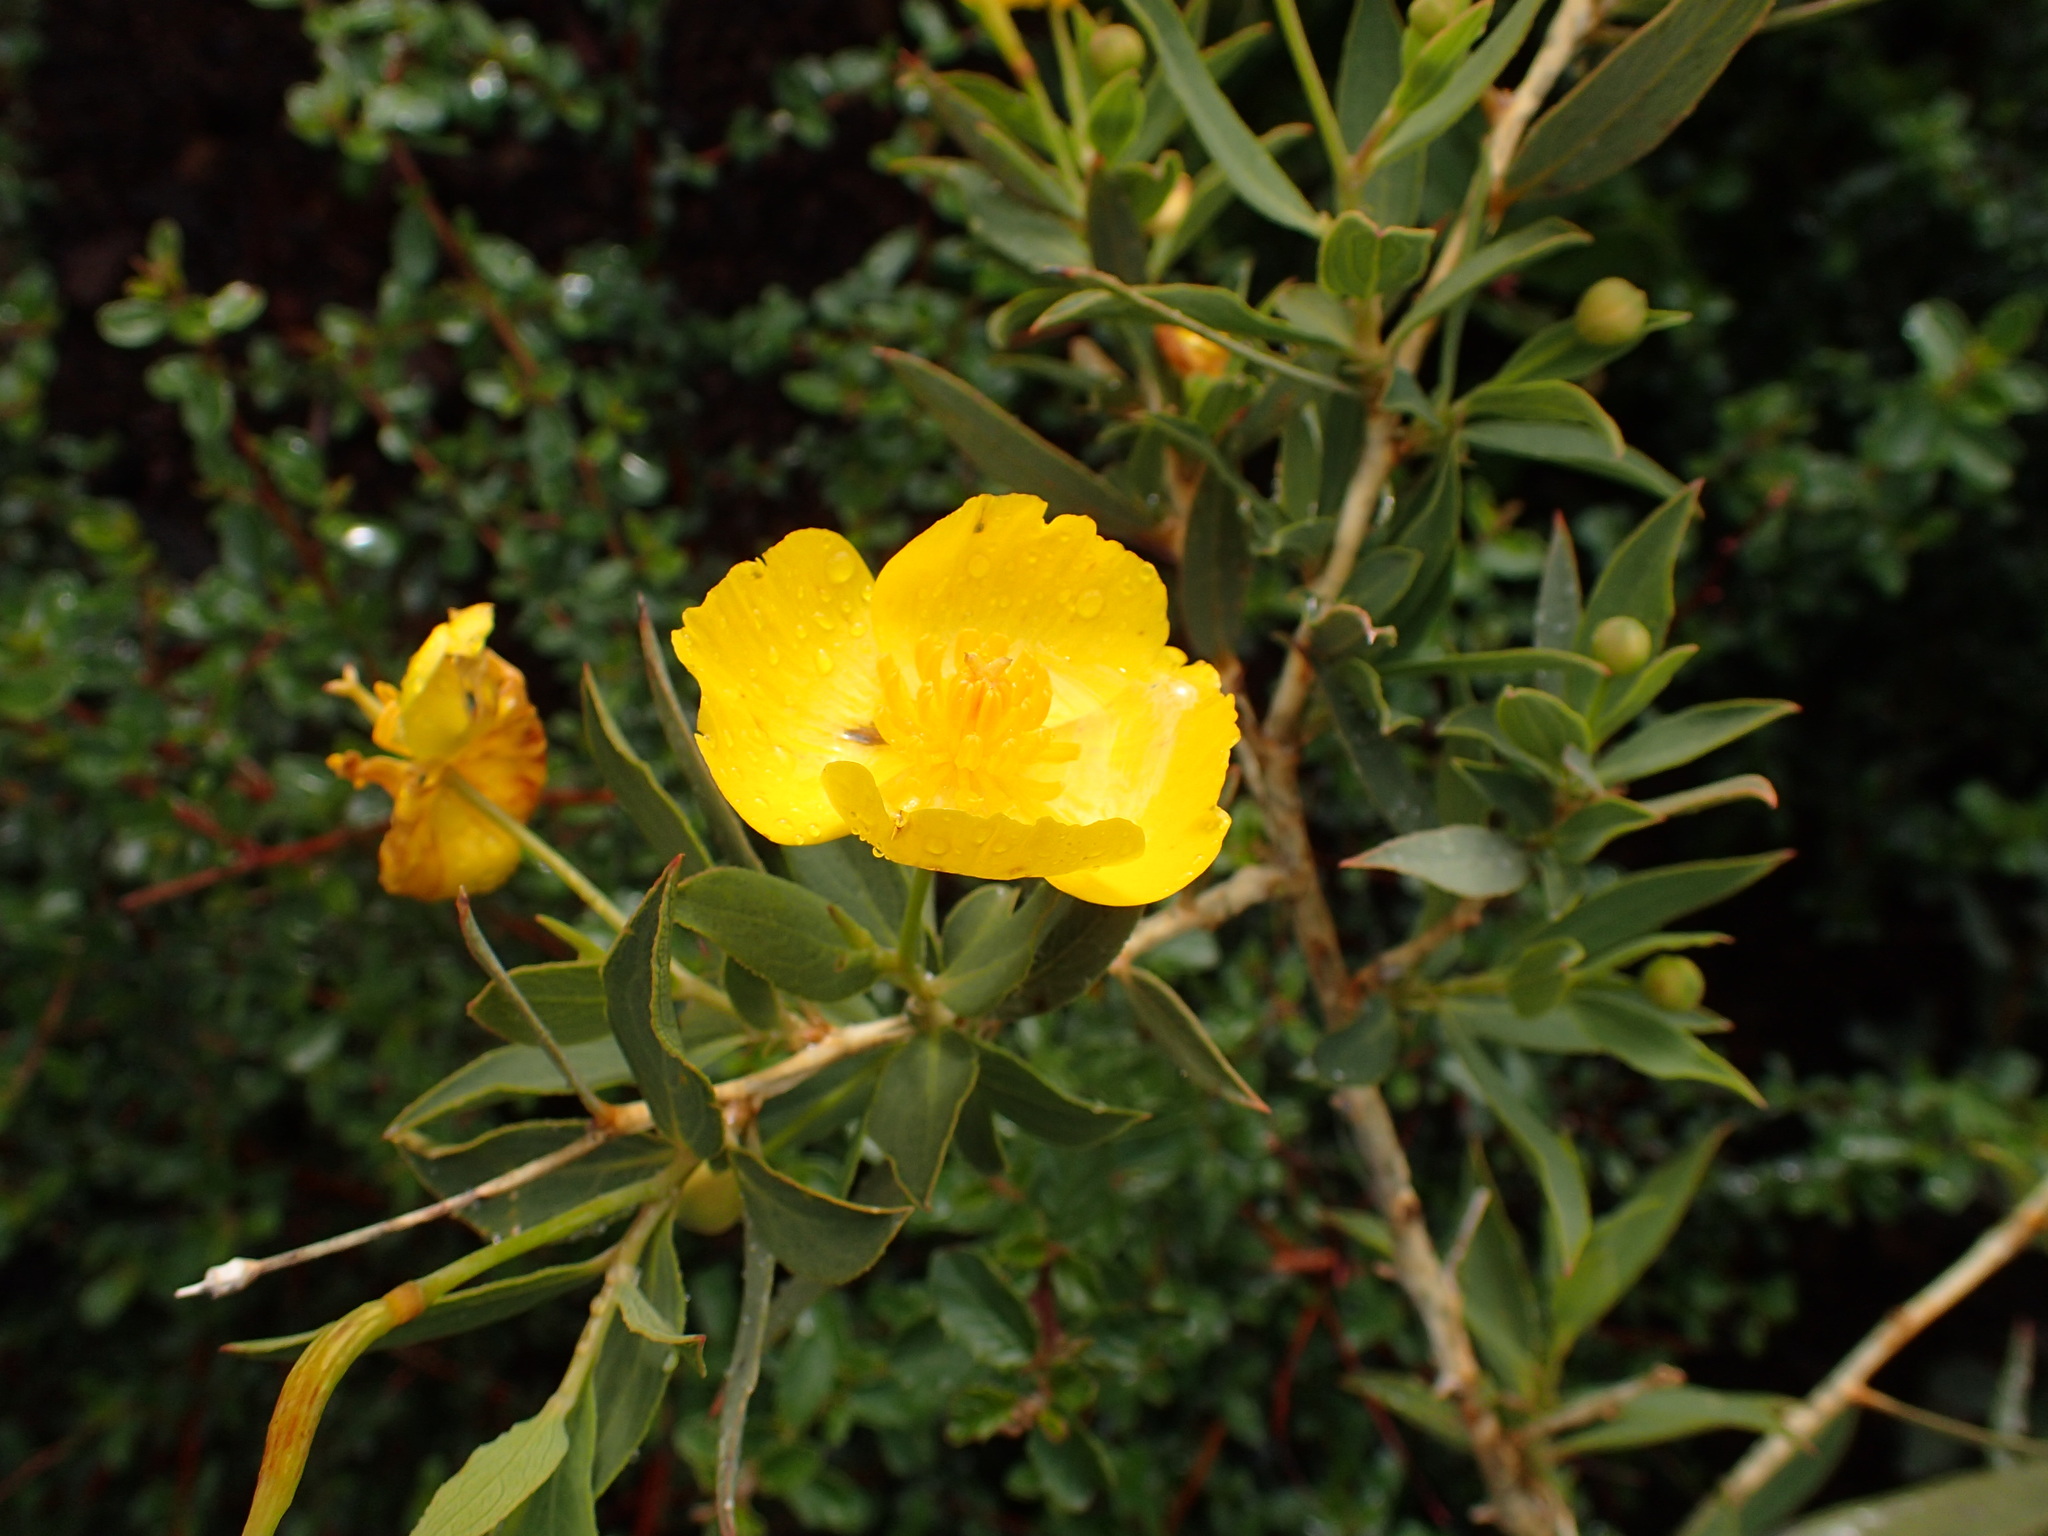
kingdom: Plantae
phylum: Tracheophyta
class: Magnoliopsida
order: Ranunculales
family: Papaveraceae
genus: Dendromecon
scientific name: Dendromecon rigida
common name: Tree poppy
